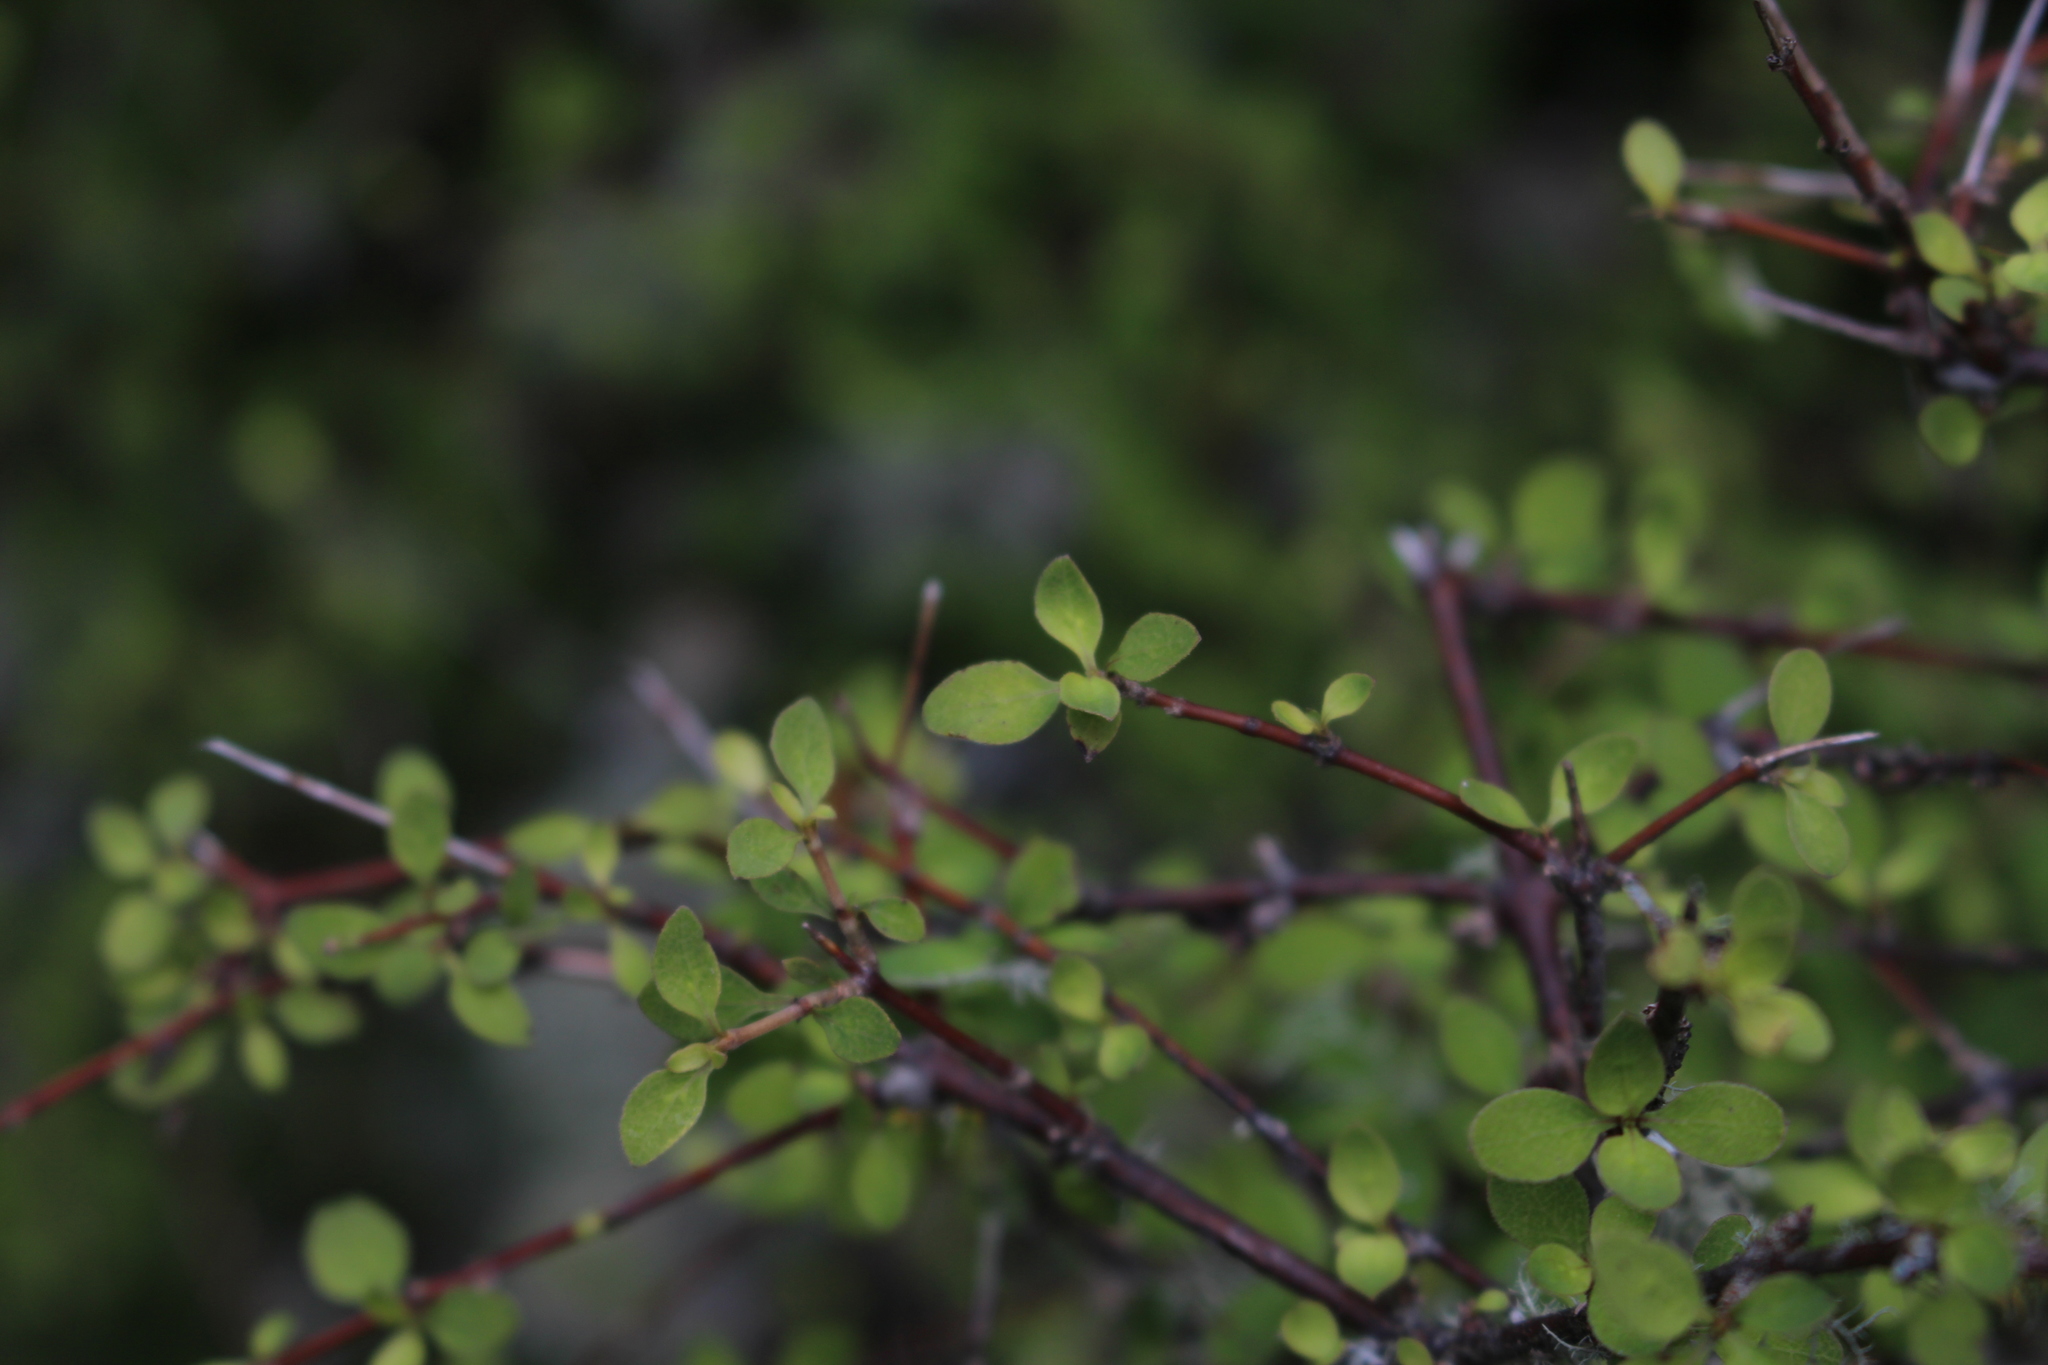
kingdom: Plantae
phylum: Tracheophyta
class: Magnoliopsida
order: Gentianales
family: Rubiaceae
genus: Coprosma
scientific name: Coprosma rhamnoides
